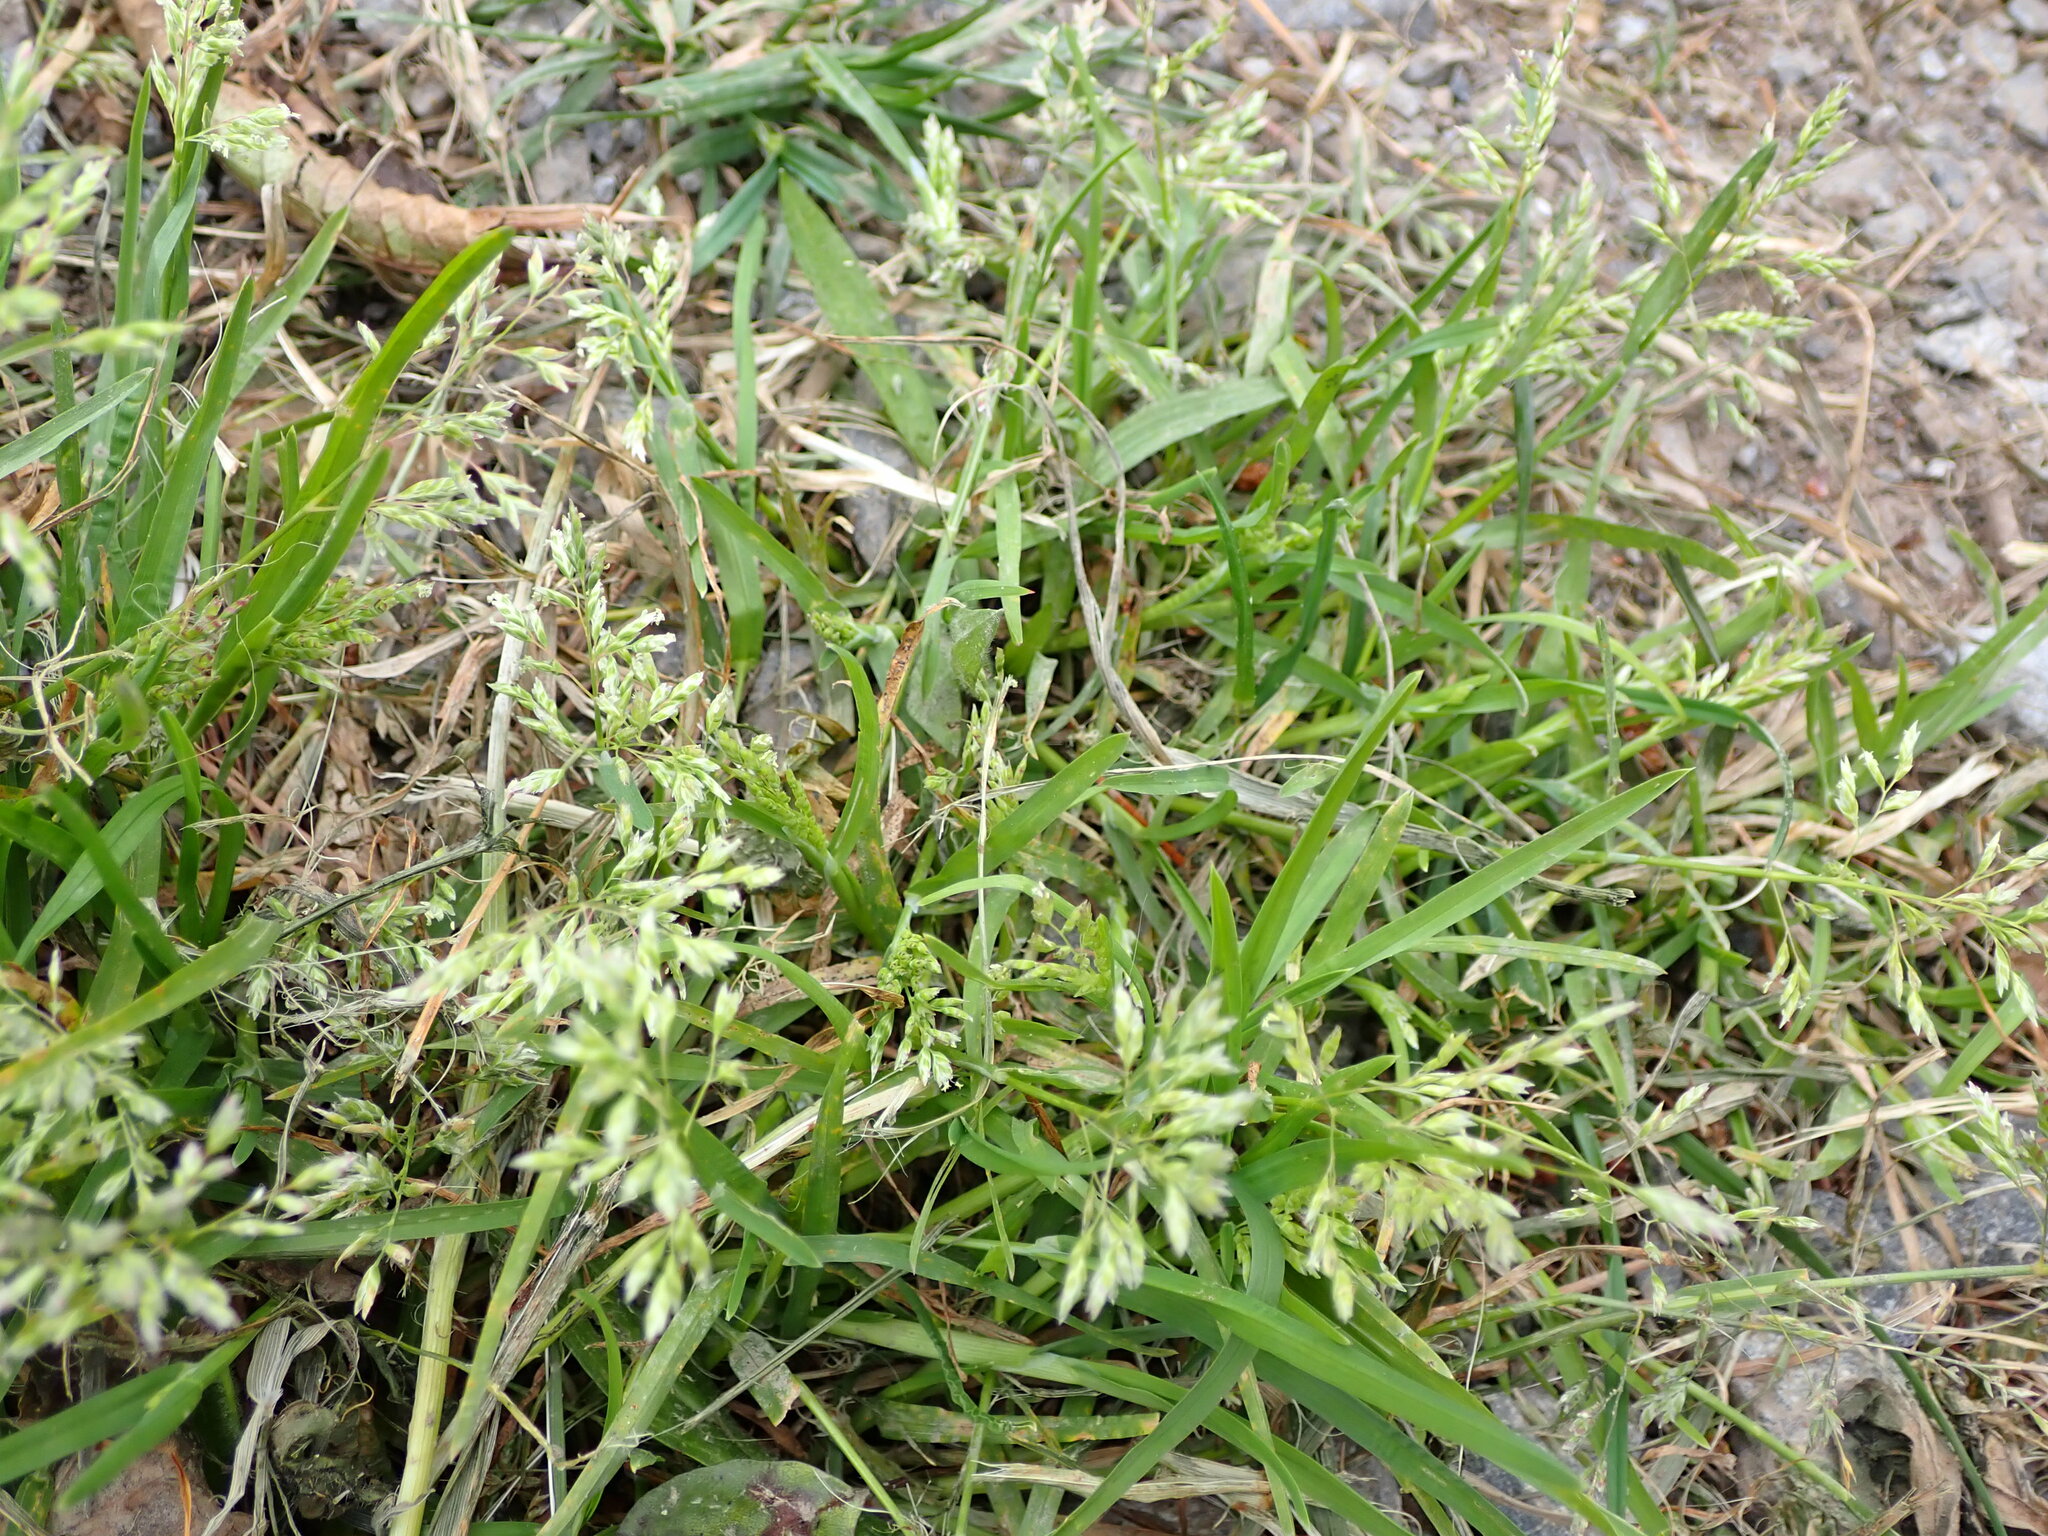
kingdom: Plantae
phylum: Tracheophyta
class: Liliopsida
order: Poales
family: Poaceae
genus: Poa
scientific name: Poa annua
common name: Annual bluegrass
